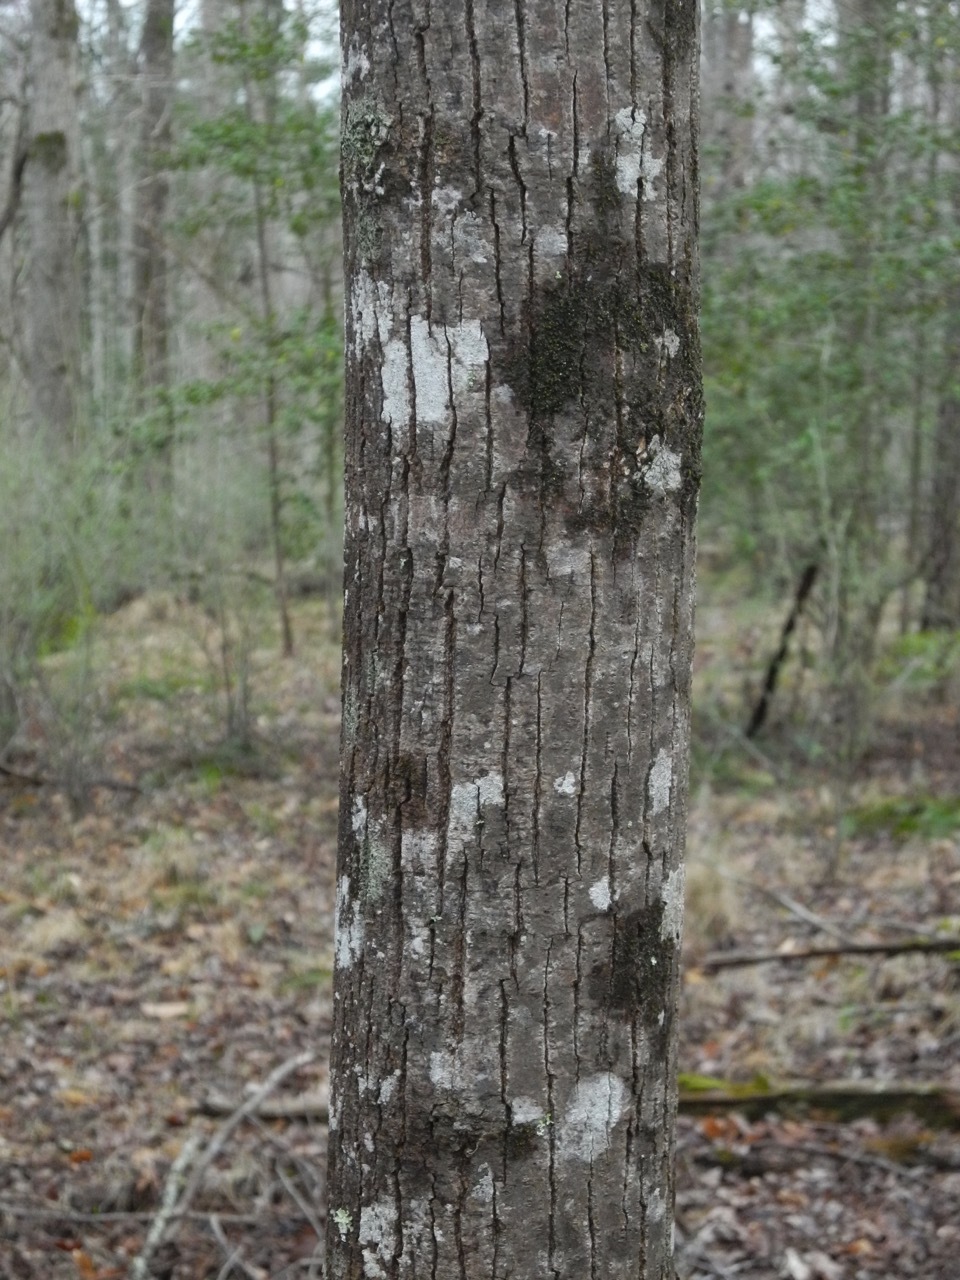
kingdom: Plantae
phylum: Tracheophyta
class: Magnoliopsida
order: Fagales
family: Juglandaceae
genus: Carya
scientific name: Carya alba
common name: Mockernut hickory
